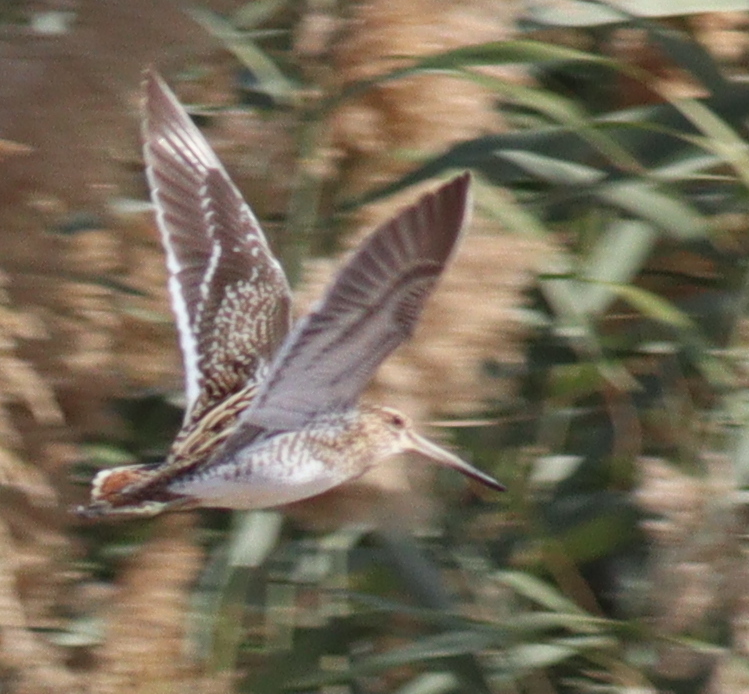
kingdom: Animalia
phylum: Chordata
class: Aves
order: Charadriiformes
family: Scolopacidae
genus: Gallinago
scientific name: Gallinago gallinago
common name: Common snipe
